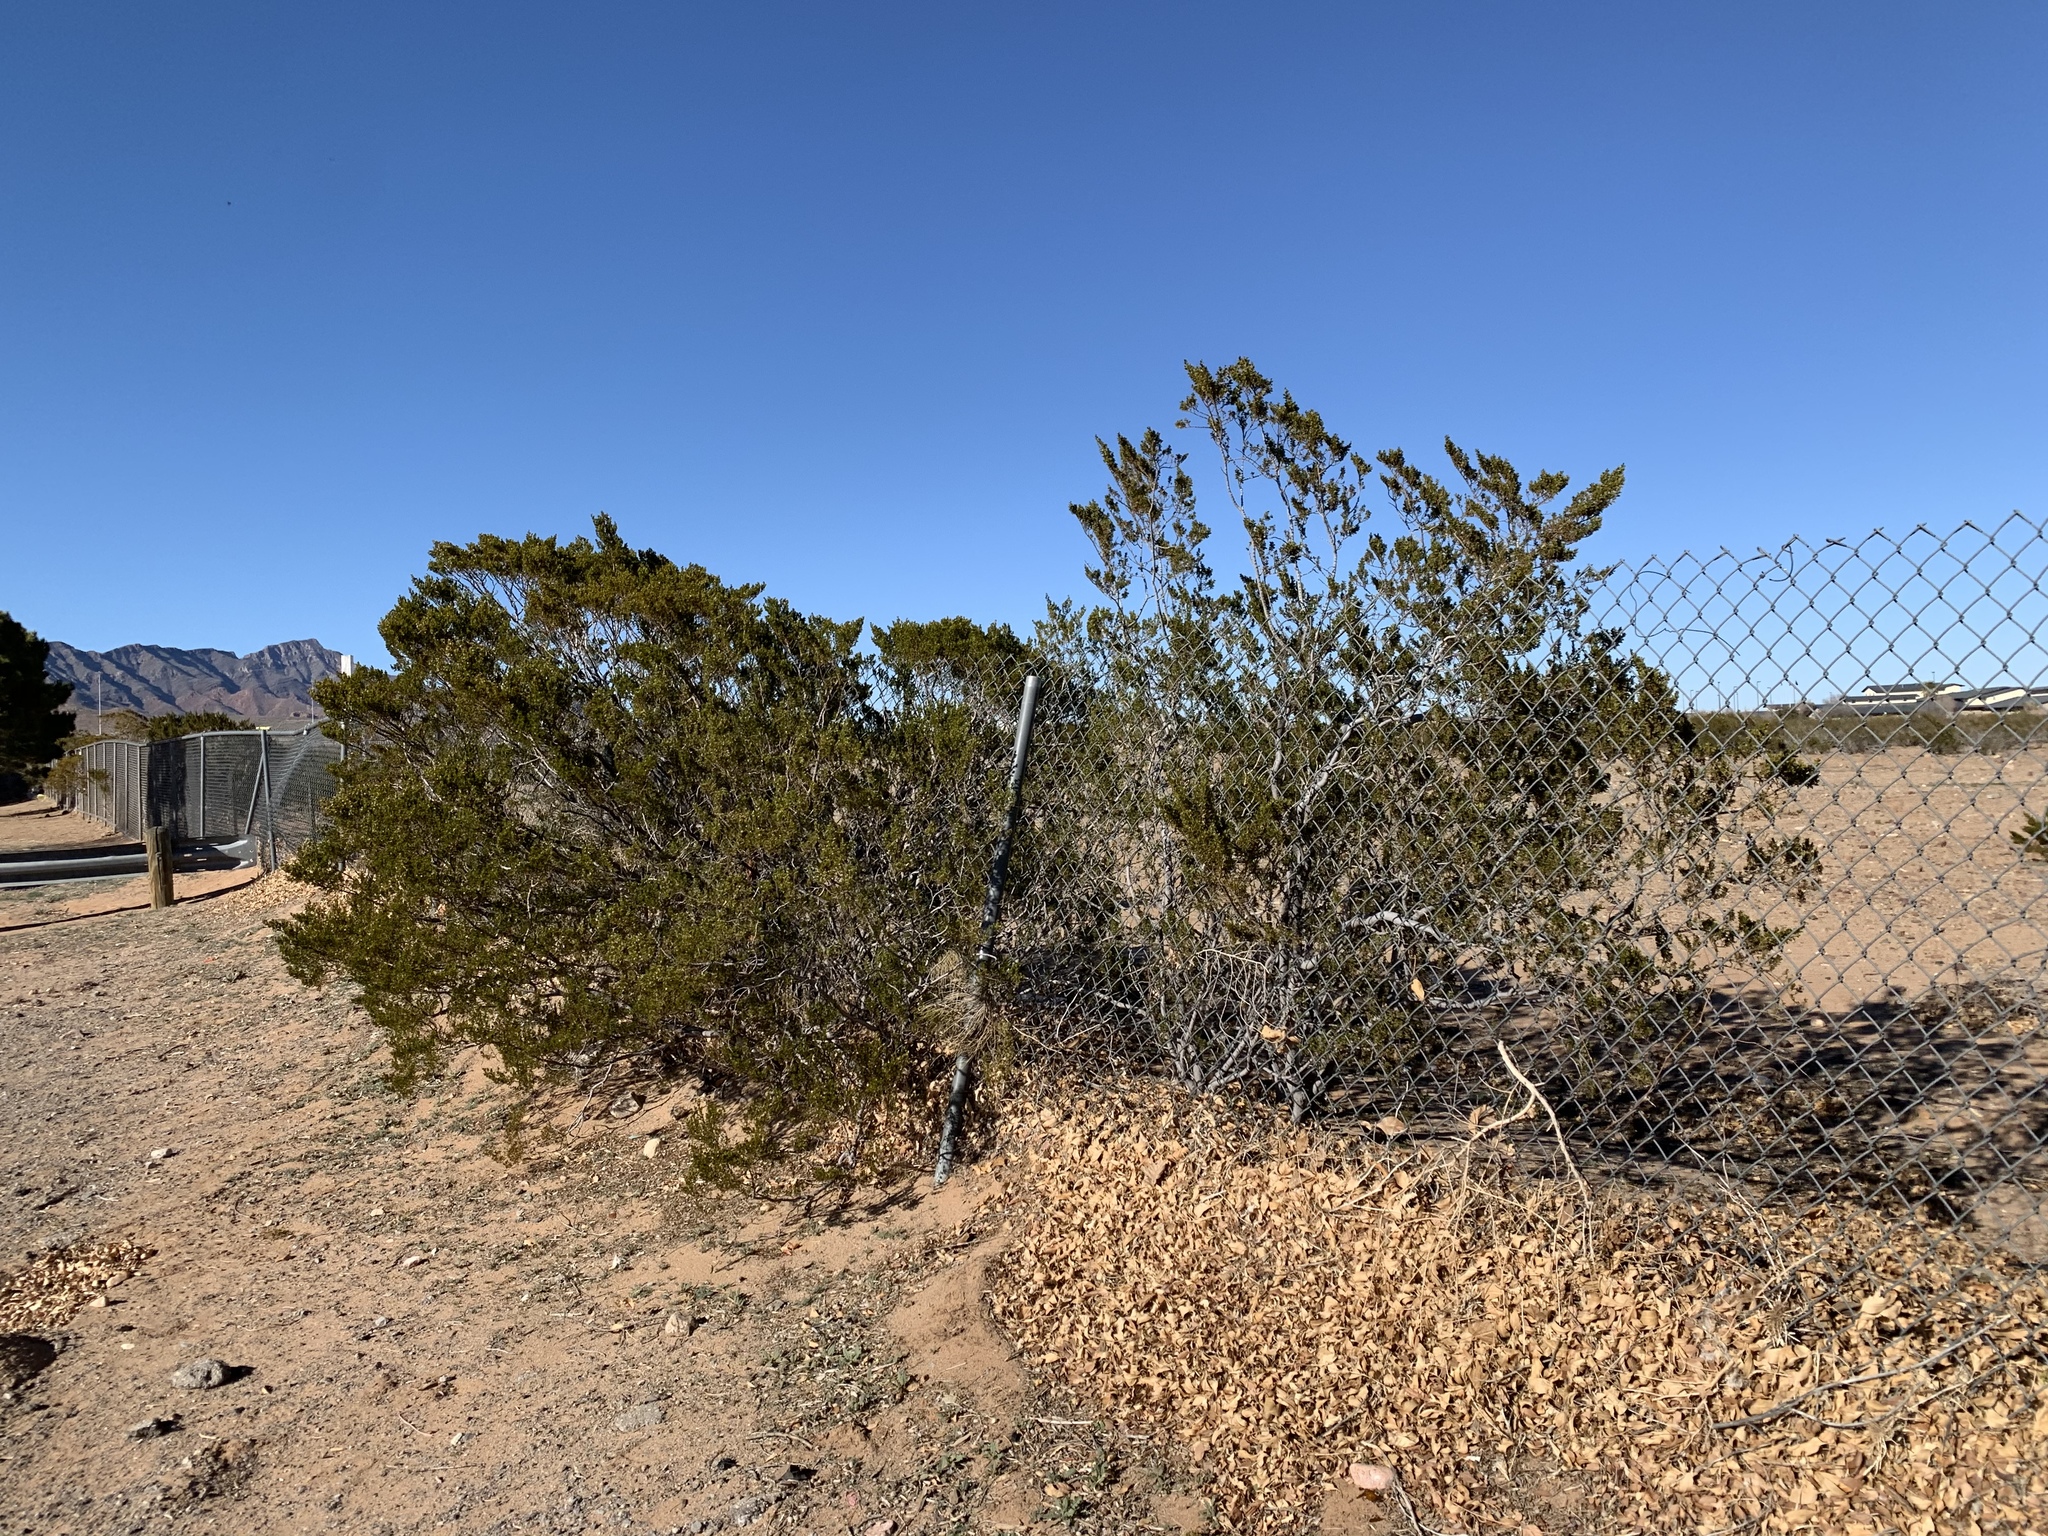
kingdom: Plantae
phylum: Tracheophyta
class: Magnoliopsida
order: Zygophyllales
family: Zygophyllaceae
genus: Larrea
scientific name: Larrea tridentata
